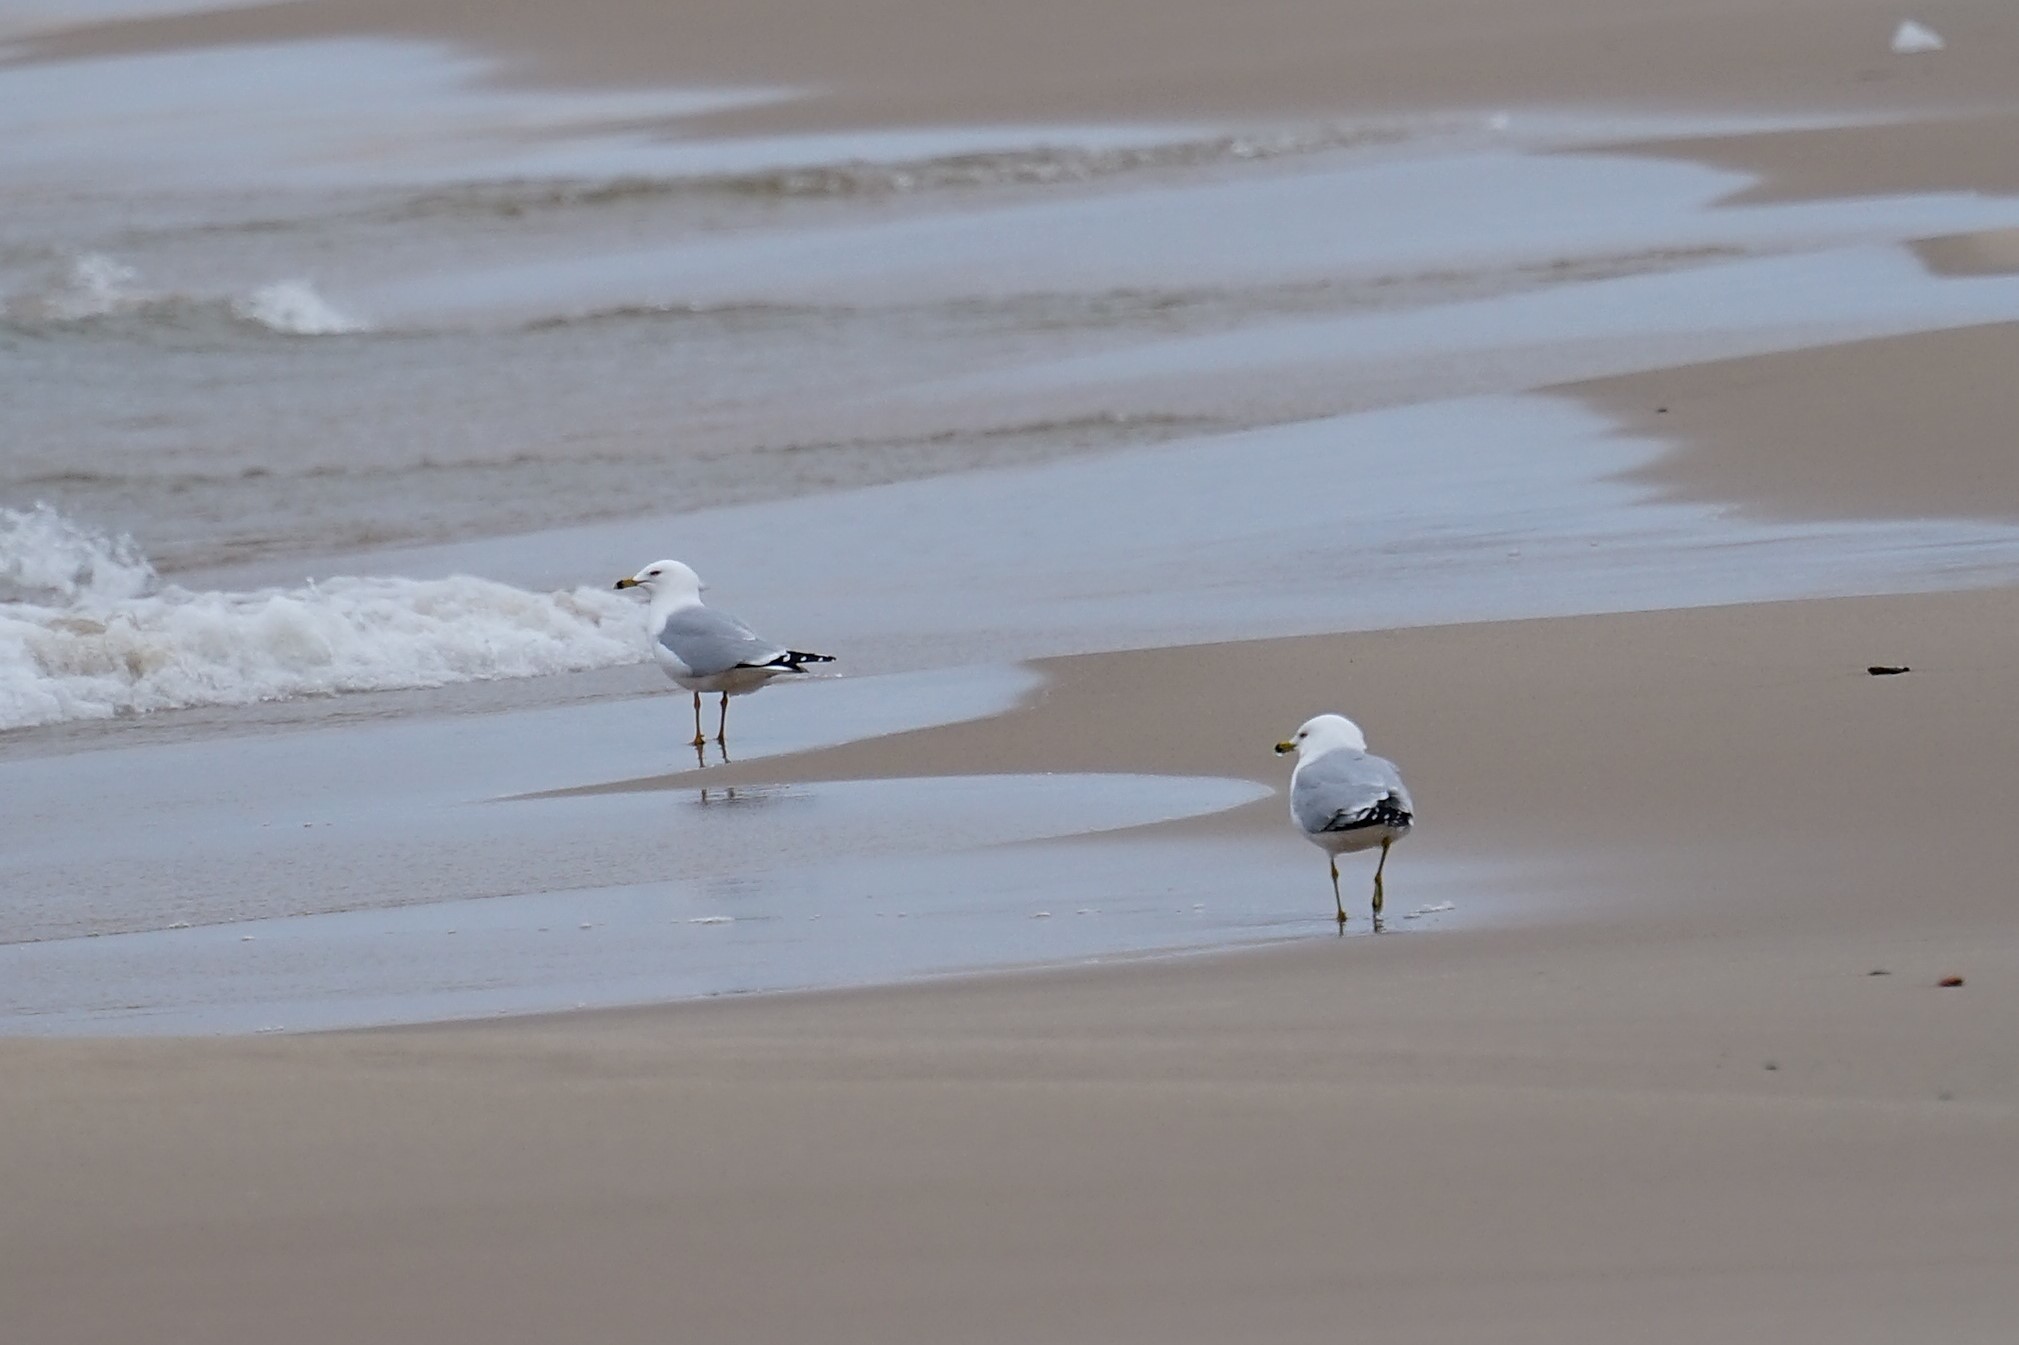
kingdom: Animalia
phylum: Chordata
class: Aves
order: Charadriiformes
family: Laridae
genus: Larus
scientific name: Larus delawarensis
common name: Ring-billed gull
